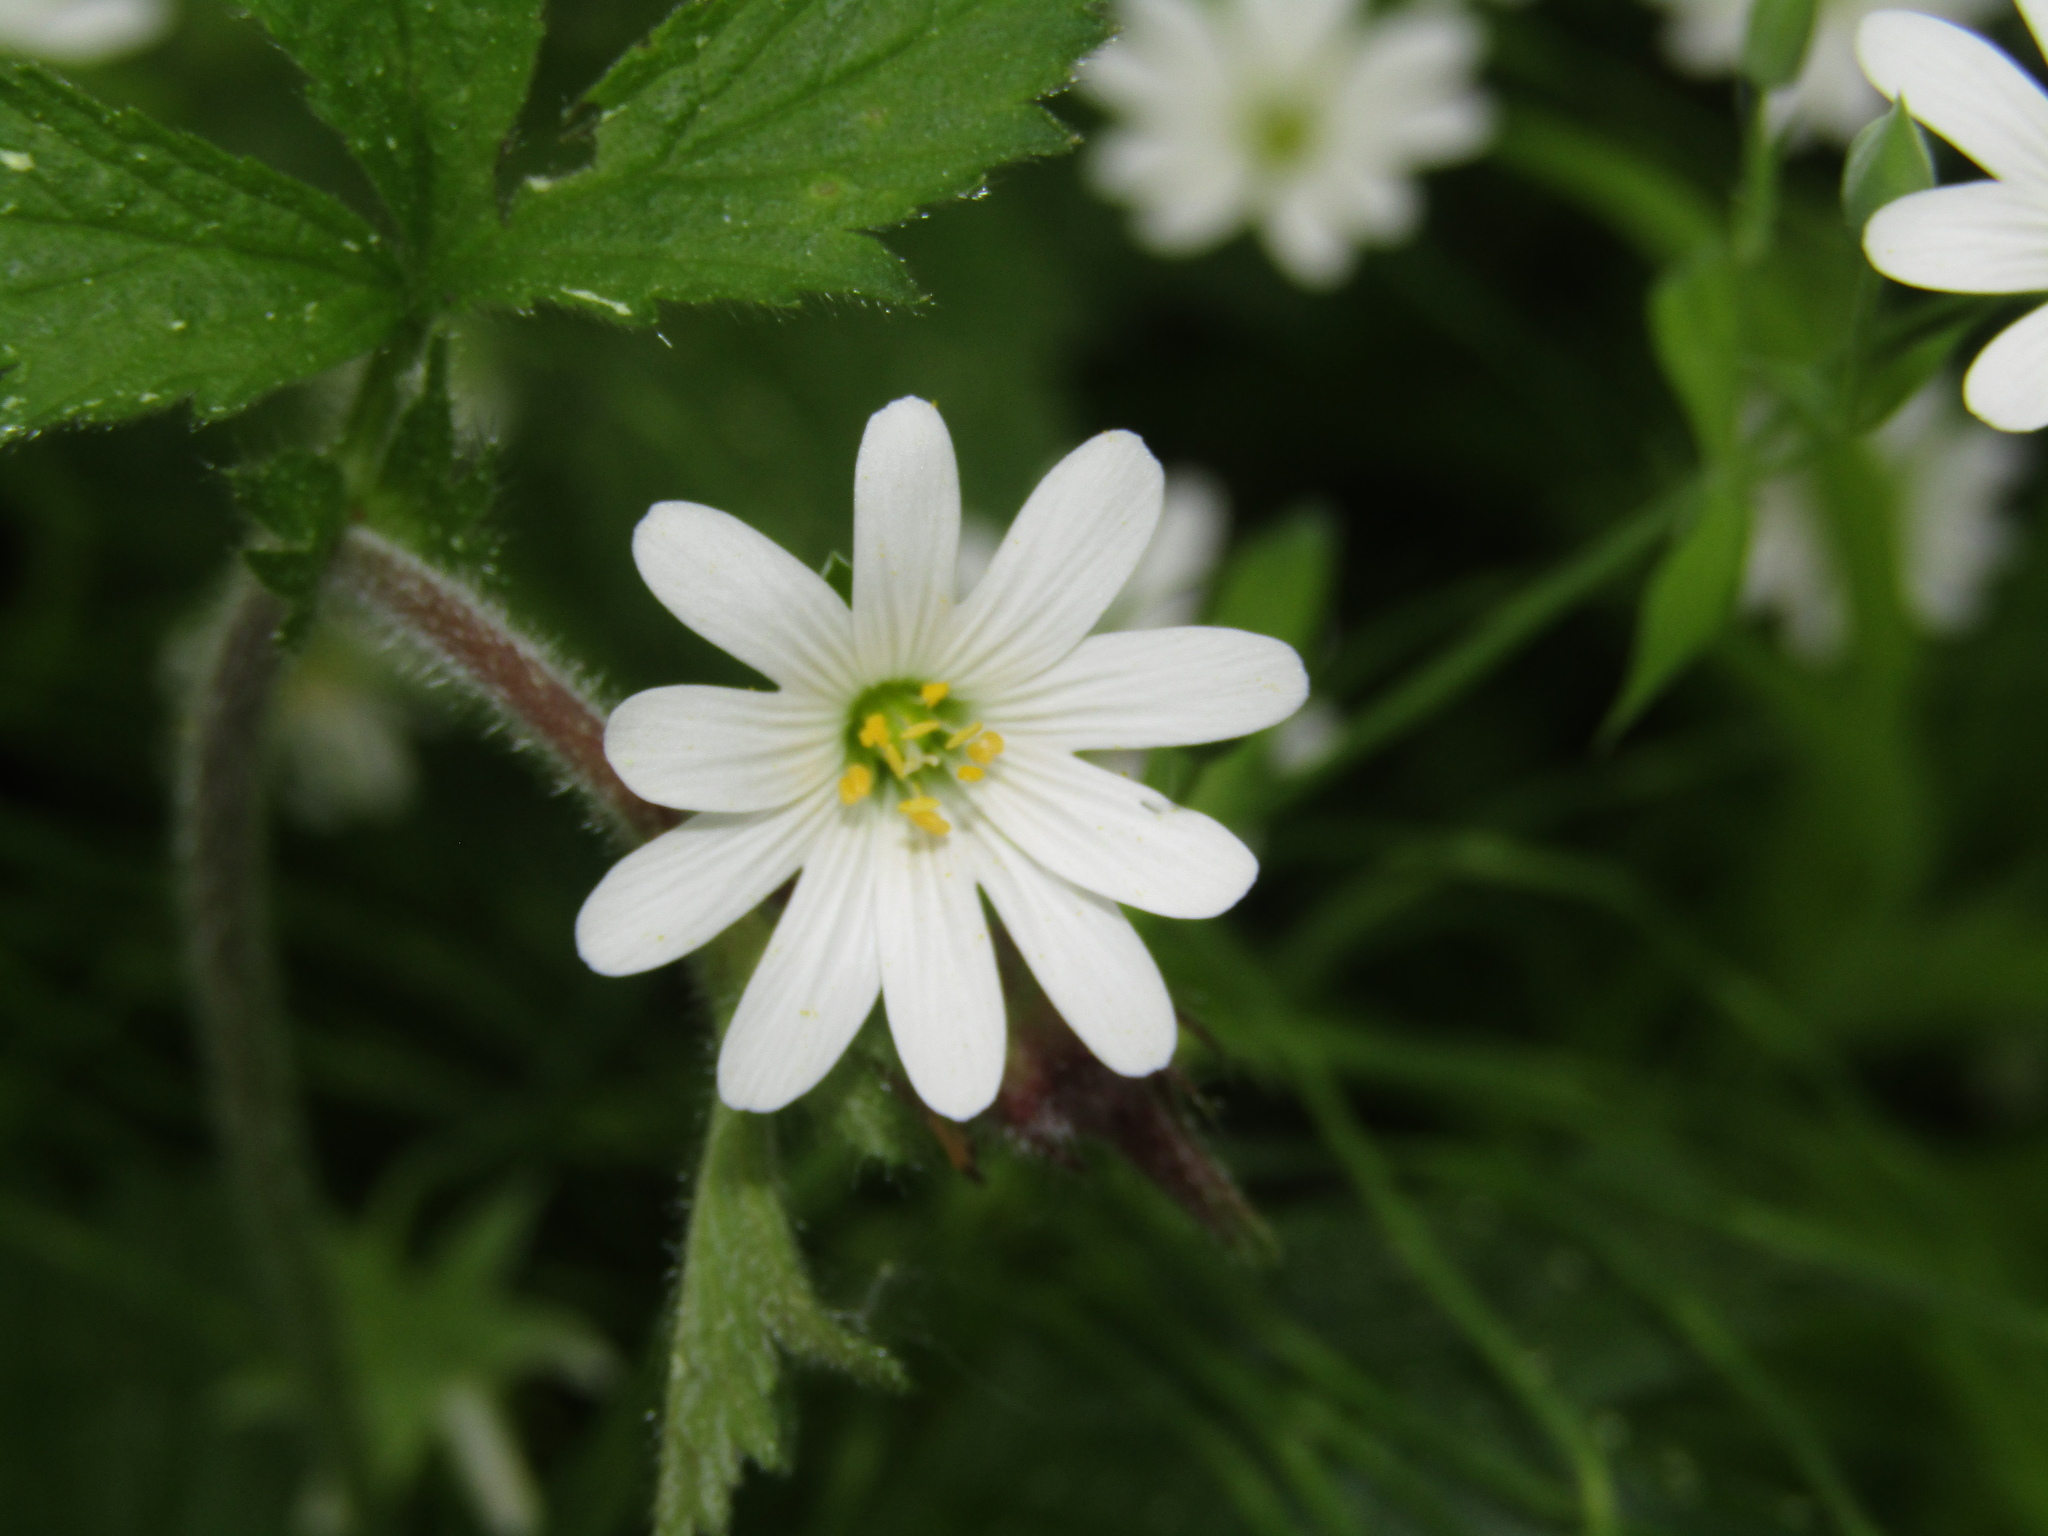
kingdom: Plantae
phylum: Tracheophyta
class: Magnoliopsida
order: Caryophyllales
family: Caryophyllaceae
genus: Rabelera
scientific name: Rabelera holostea
